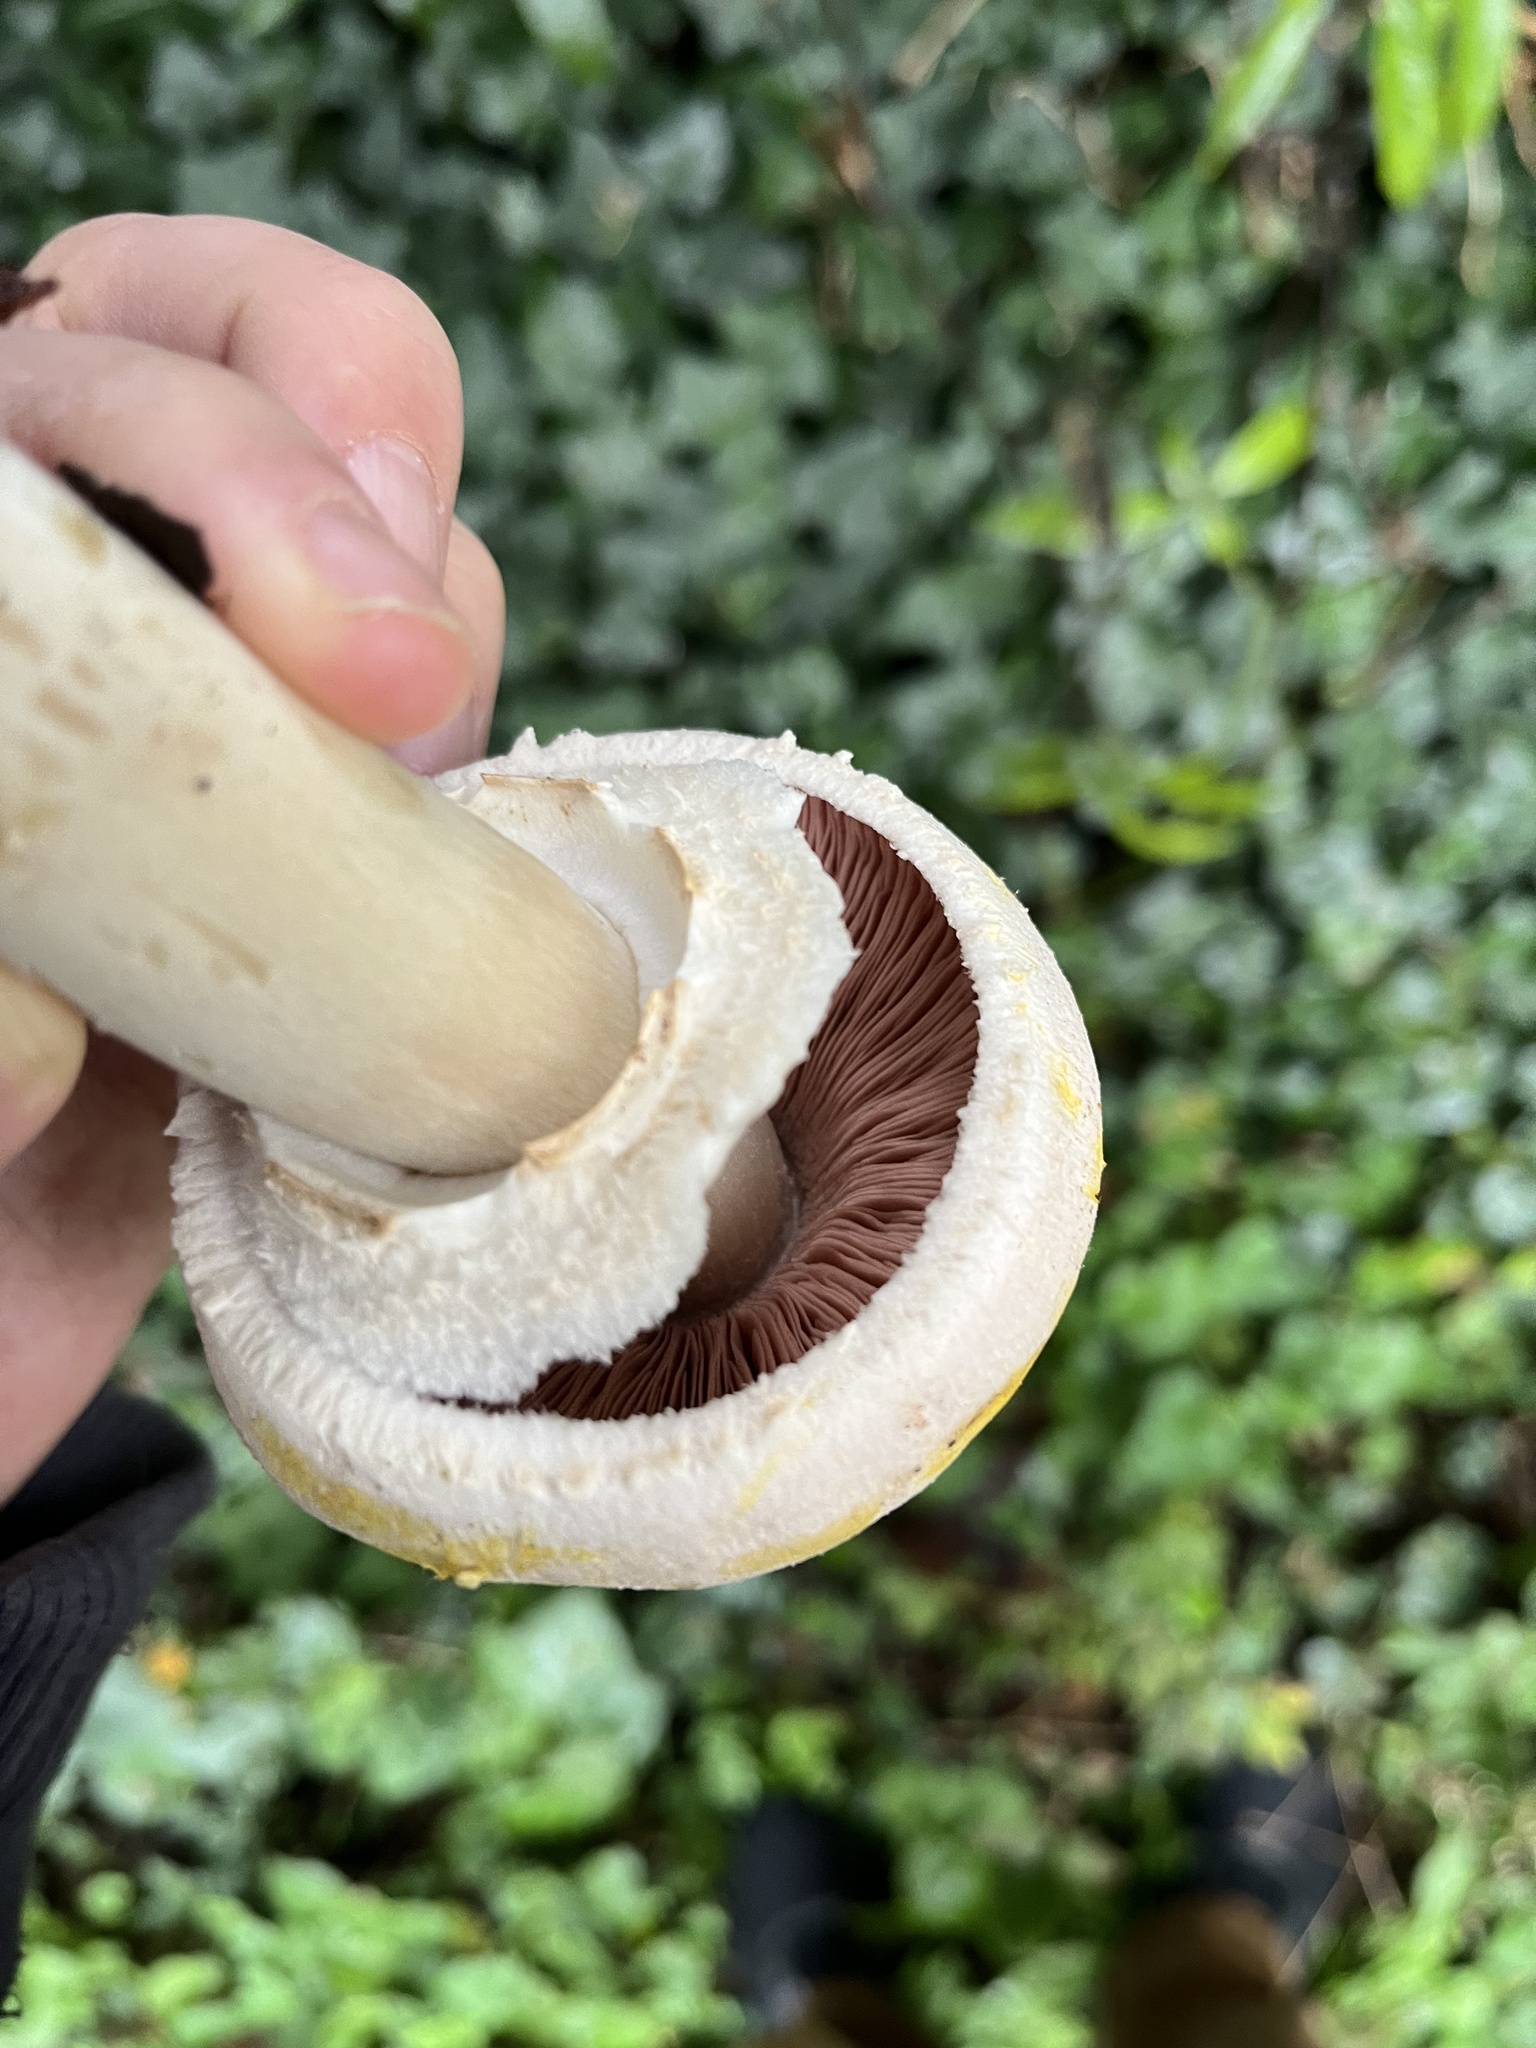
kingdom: Fungi
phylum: Basidiomycota
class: Agaricomycetes
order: Agaricales
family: Agaricaceae
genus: Agaricus
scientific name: Agaricus xanthodermus
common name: Yellow stainer
